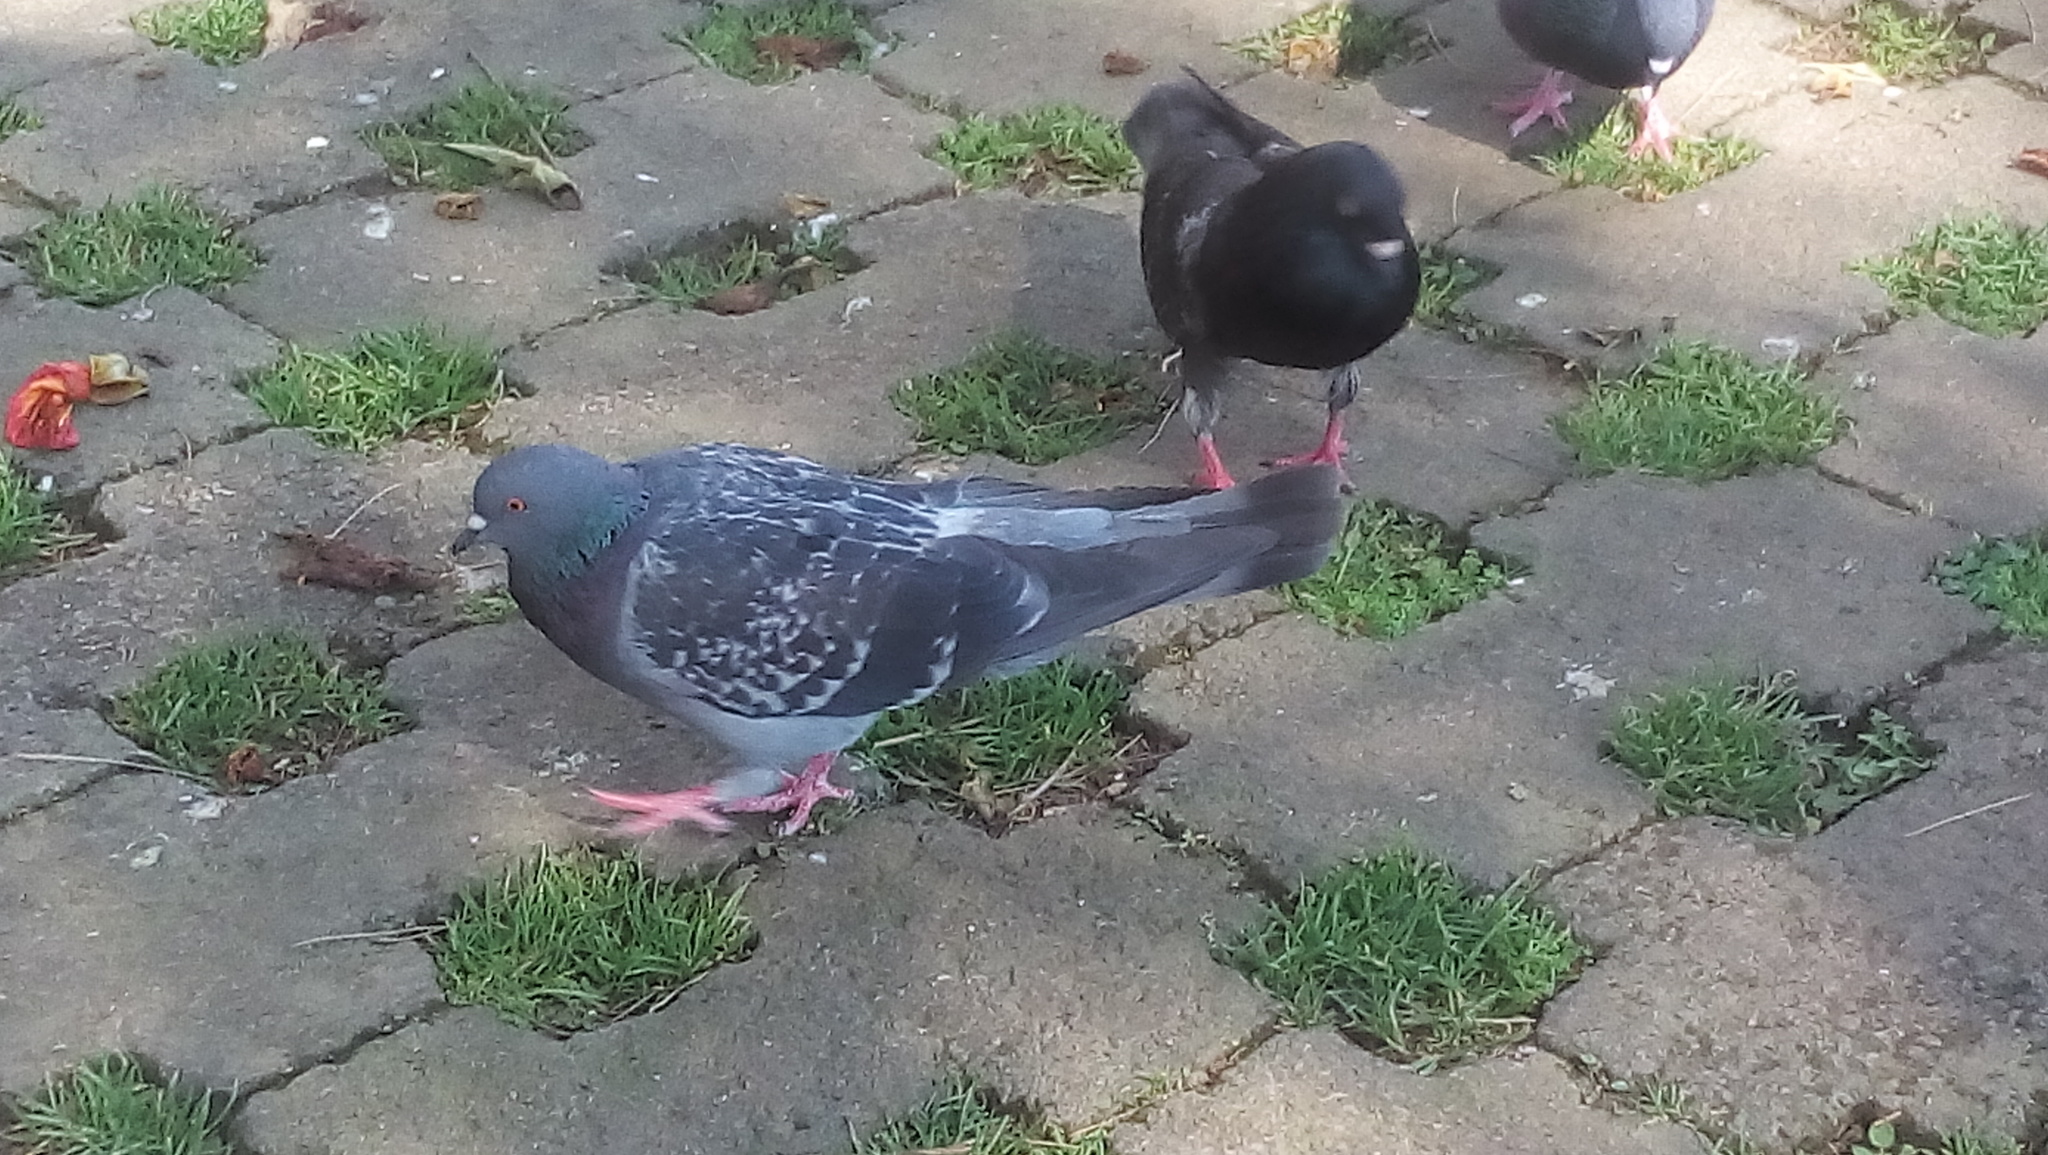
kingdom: Animalia
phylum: Chordata
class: Aves
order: Columbiformes
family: Columbidae
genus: Columba
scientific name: Columba livia
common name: Rock pigeon
